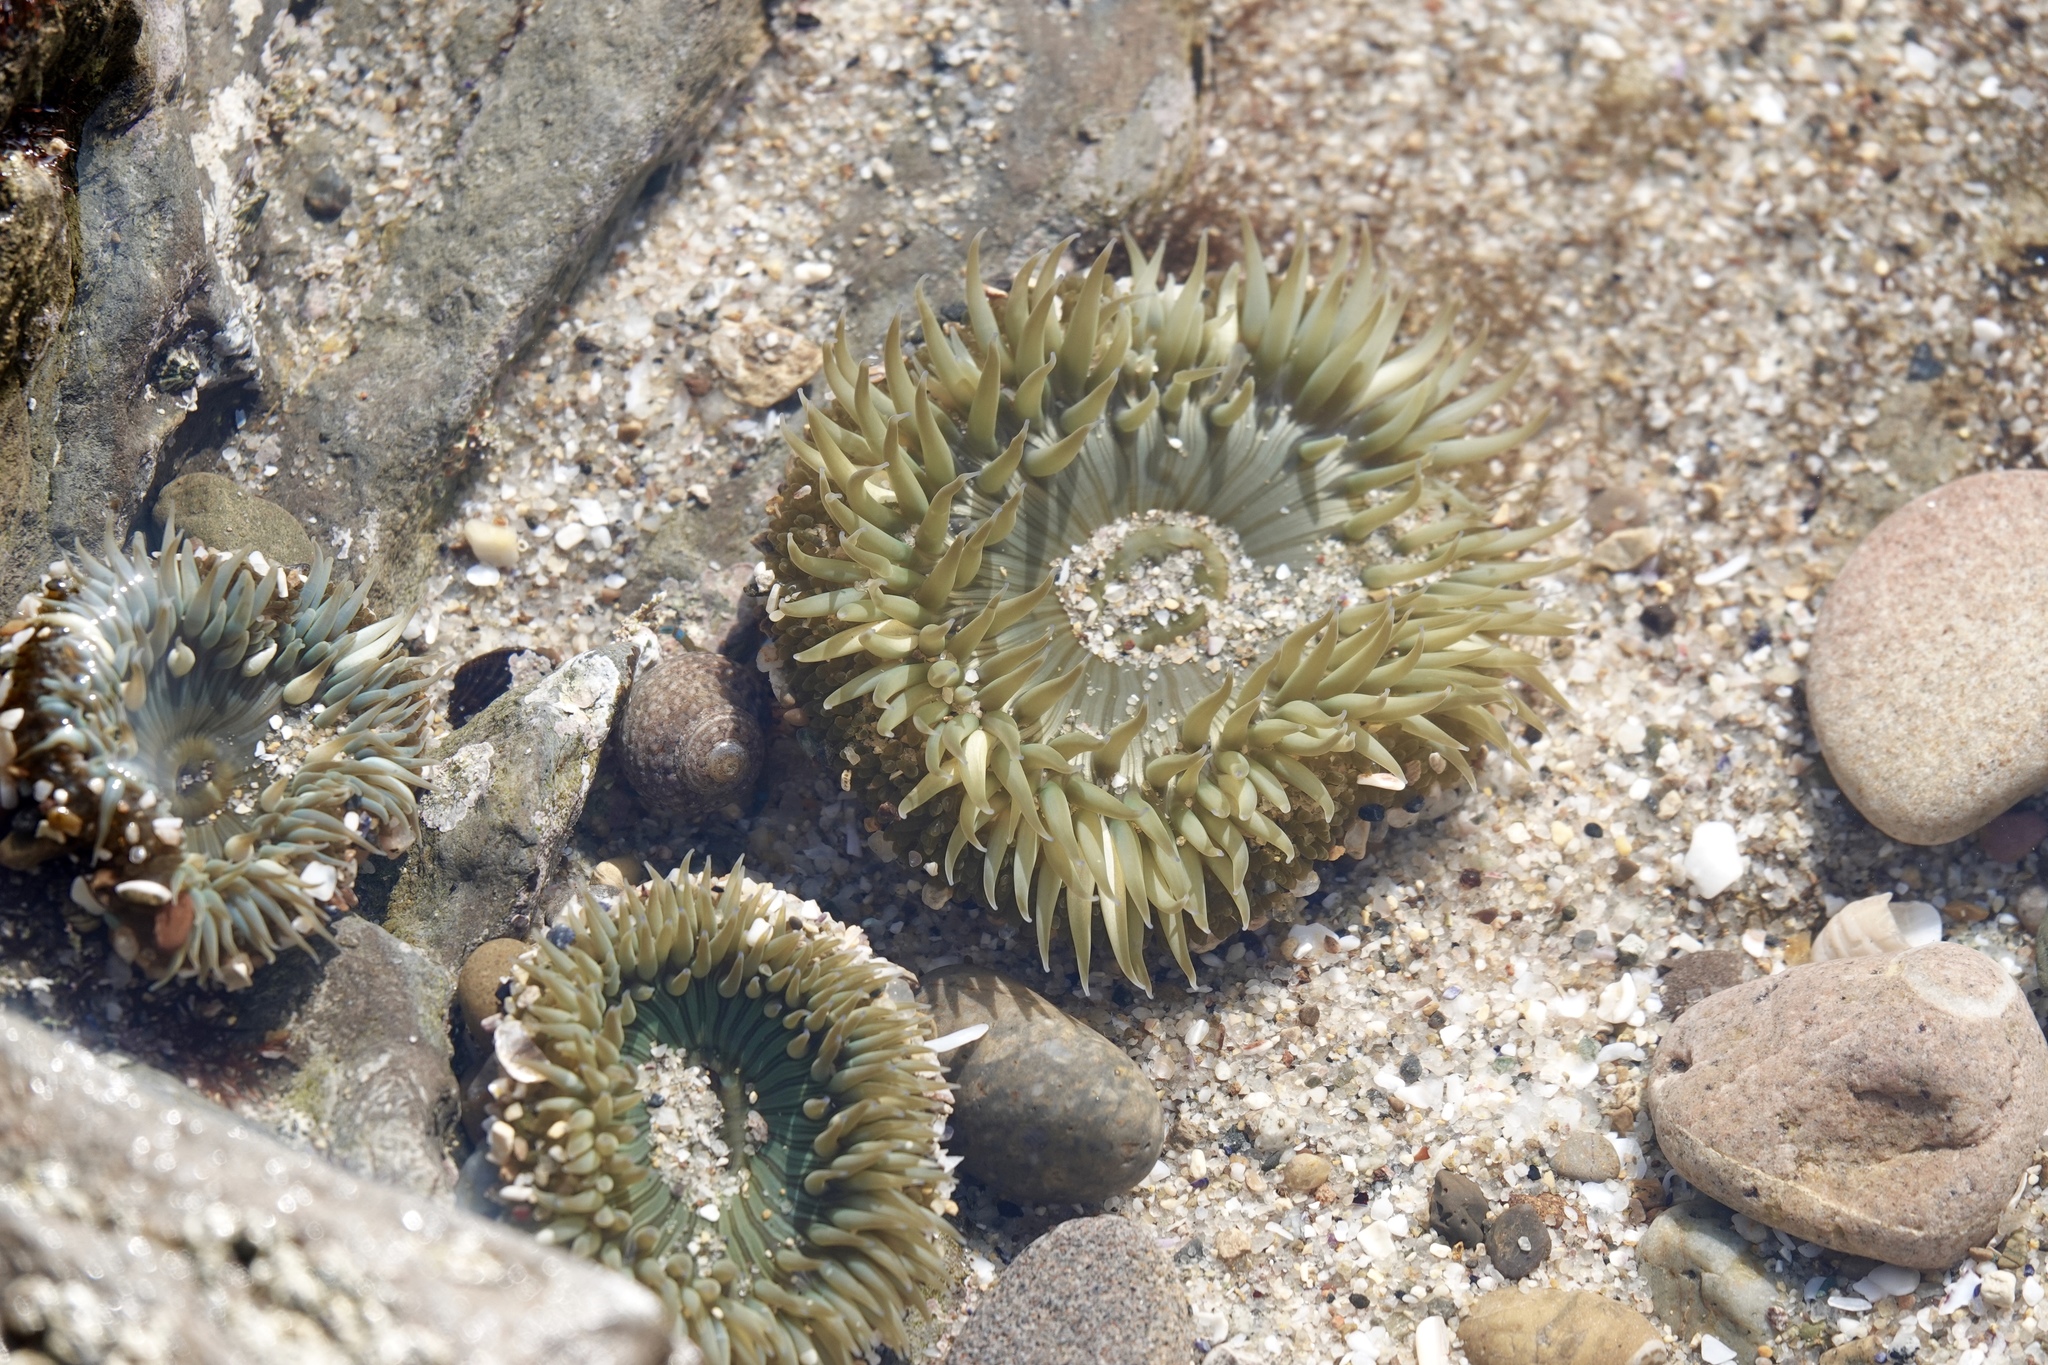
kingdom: Animalia
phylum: Cnidaria
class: Anthozoa
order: Actiniaria
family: Actiniidae
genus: Anthopleura
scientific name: Anthopleura sola
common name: Sun anemone
